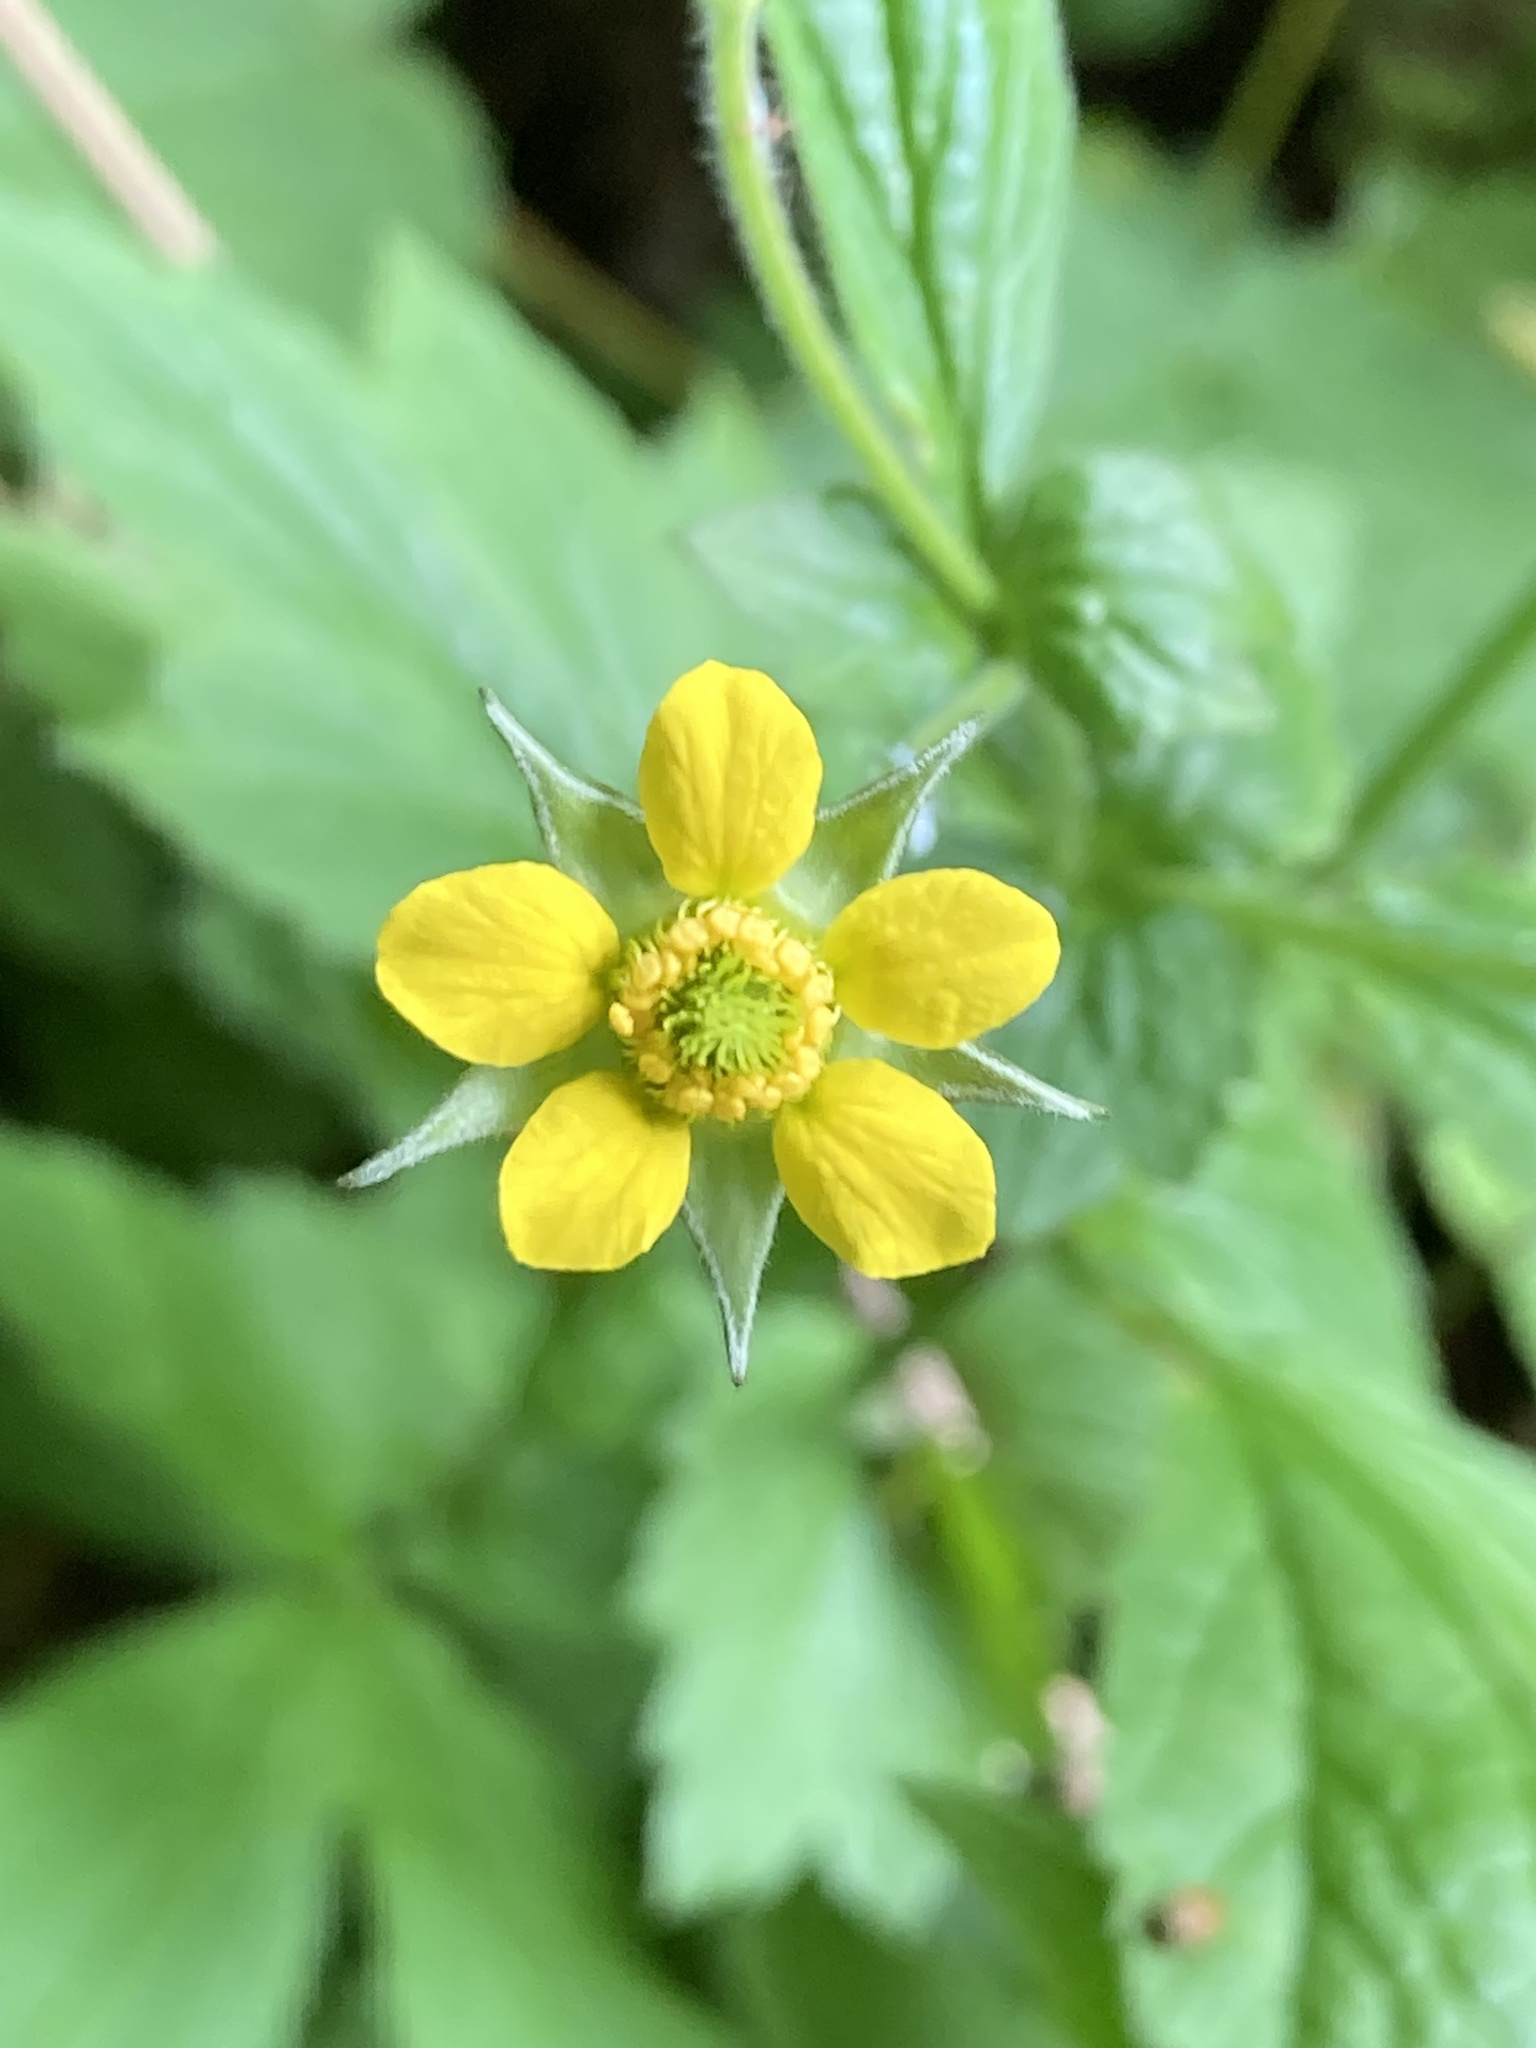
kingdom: Plantae
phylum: Tracheophyta
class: Magnoliopsida
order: Rosales
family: Rosaceae
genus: Geum
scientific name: Geum urbanum
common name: Wood avens
